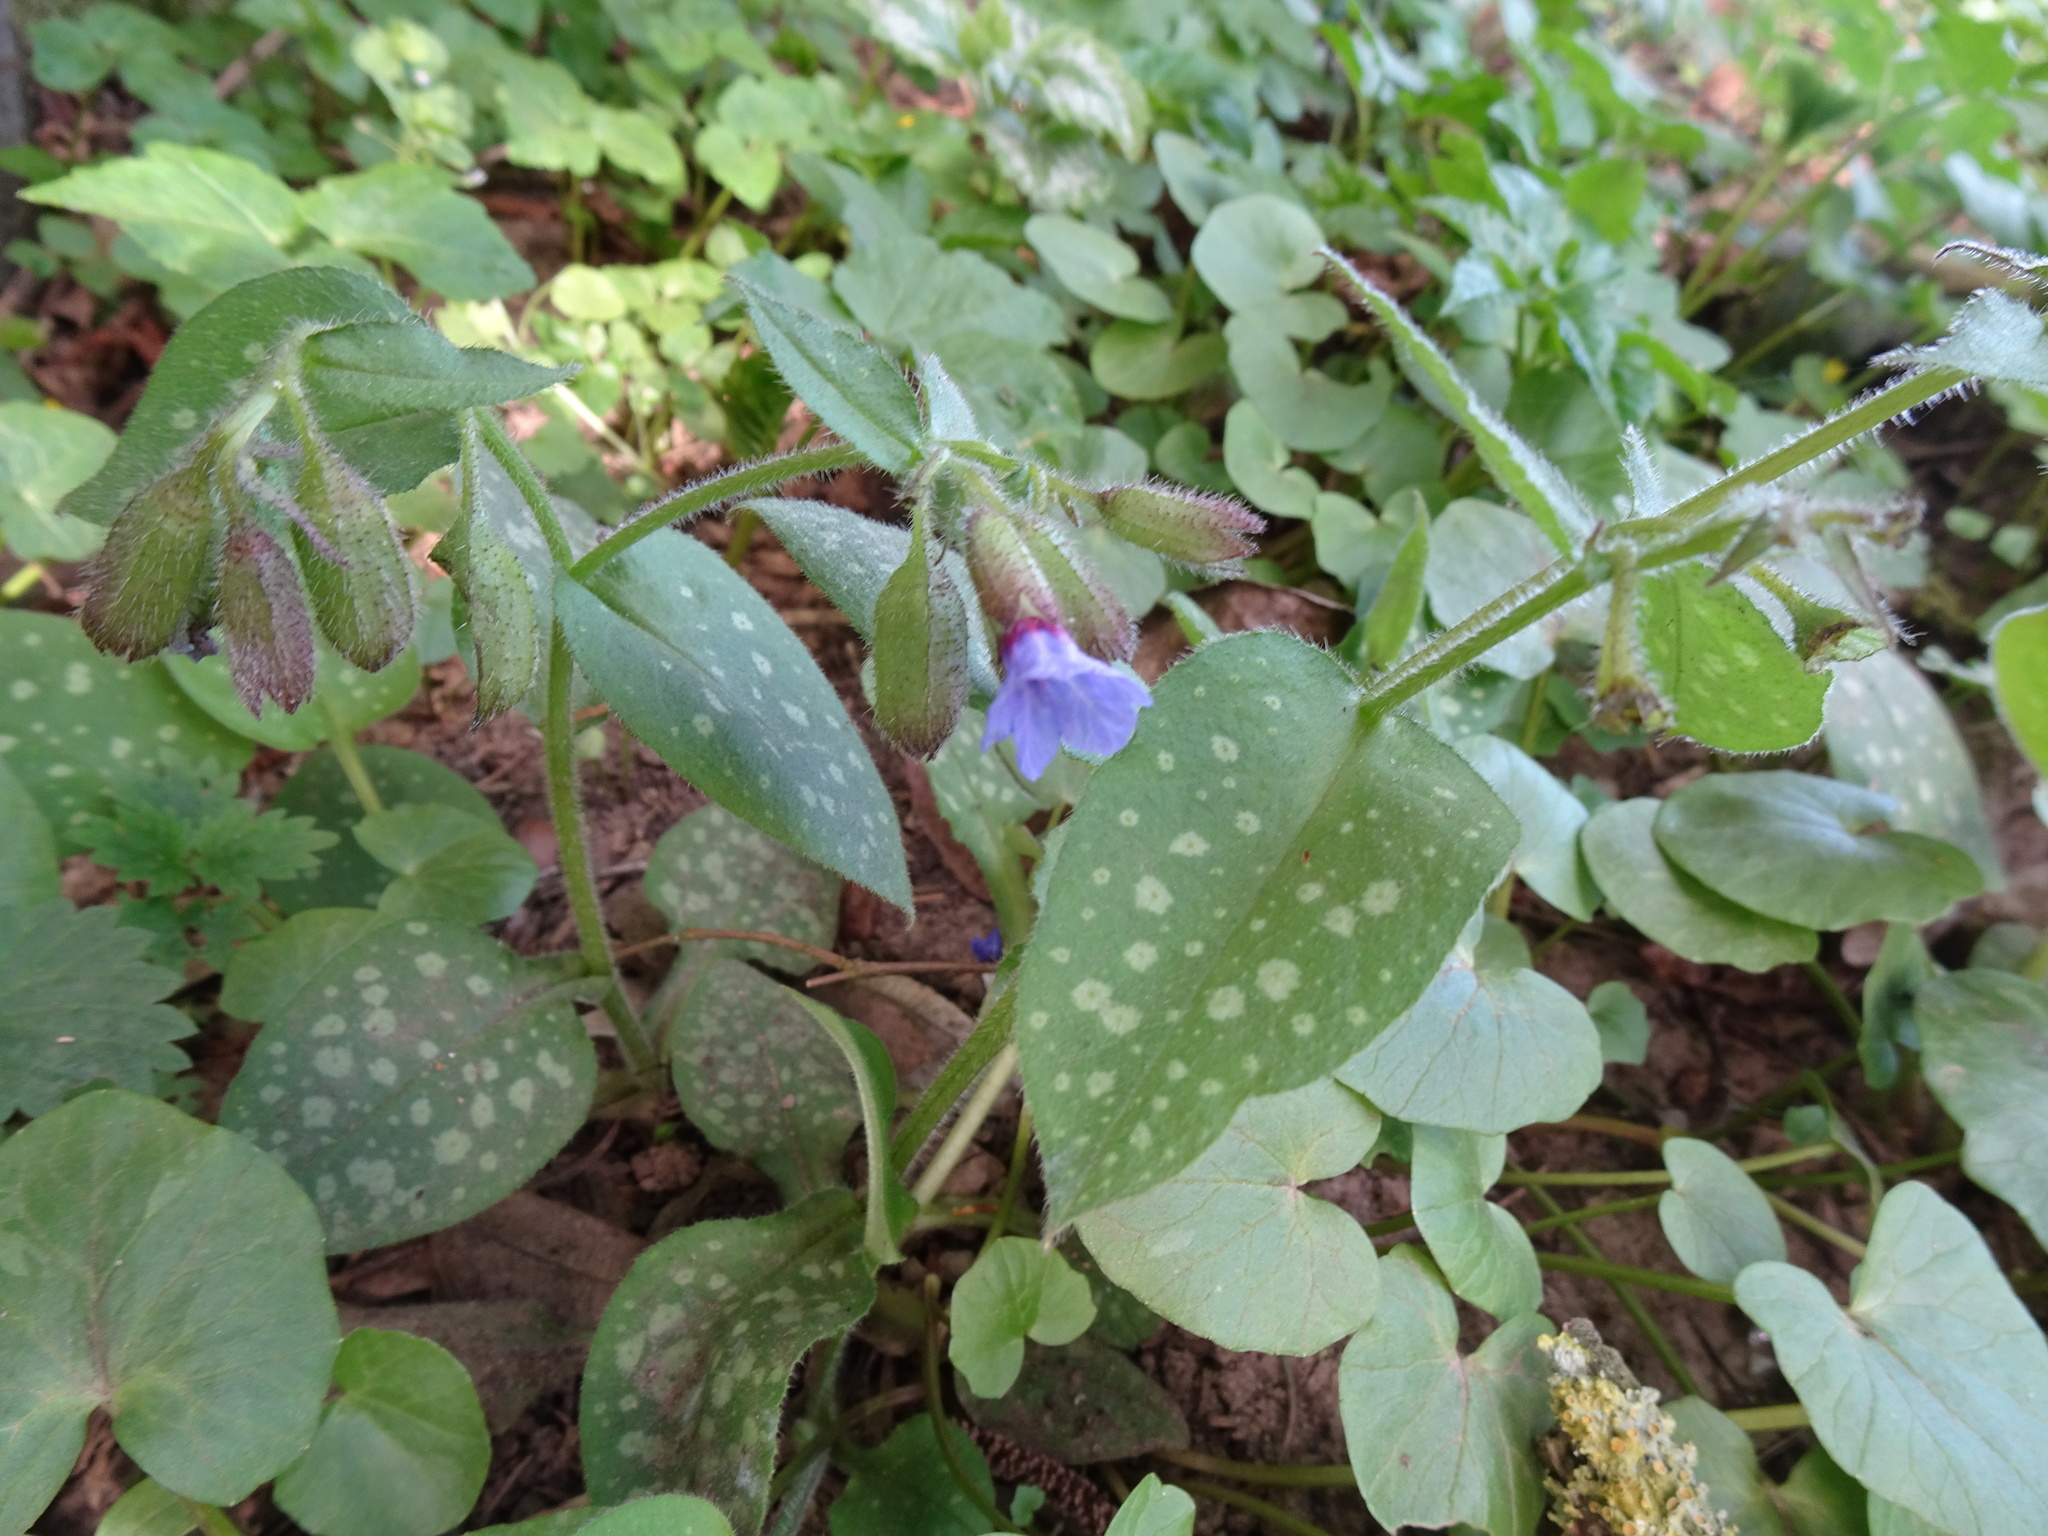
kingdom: Plantae
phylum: Tracheophyta
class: Magnoliopsida
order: Boraginales
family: Boraginaceae
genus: Pulmonaria
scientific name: Pulmonaria officinalis
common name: Lungwort
